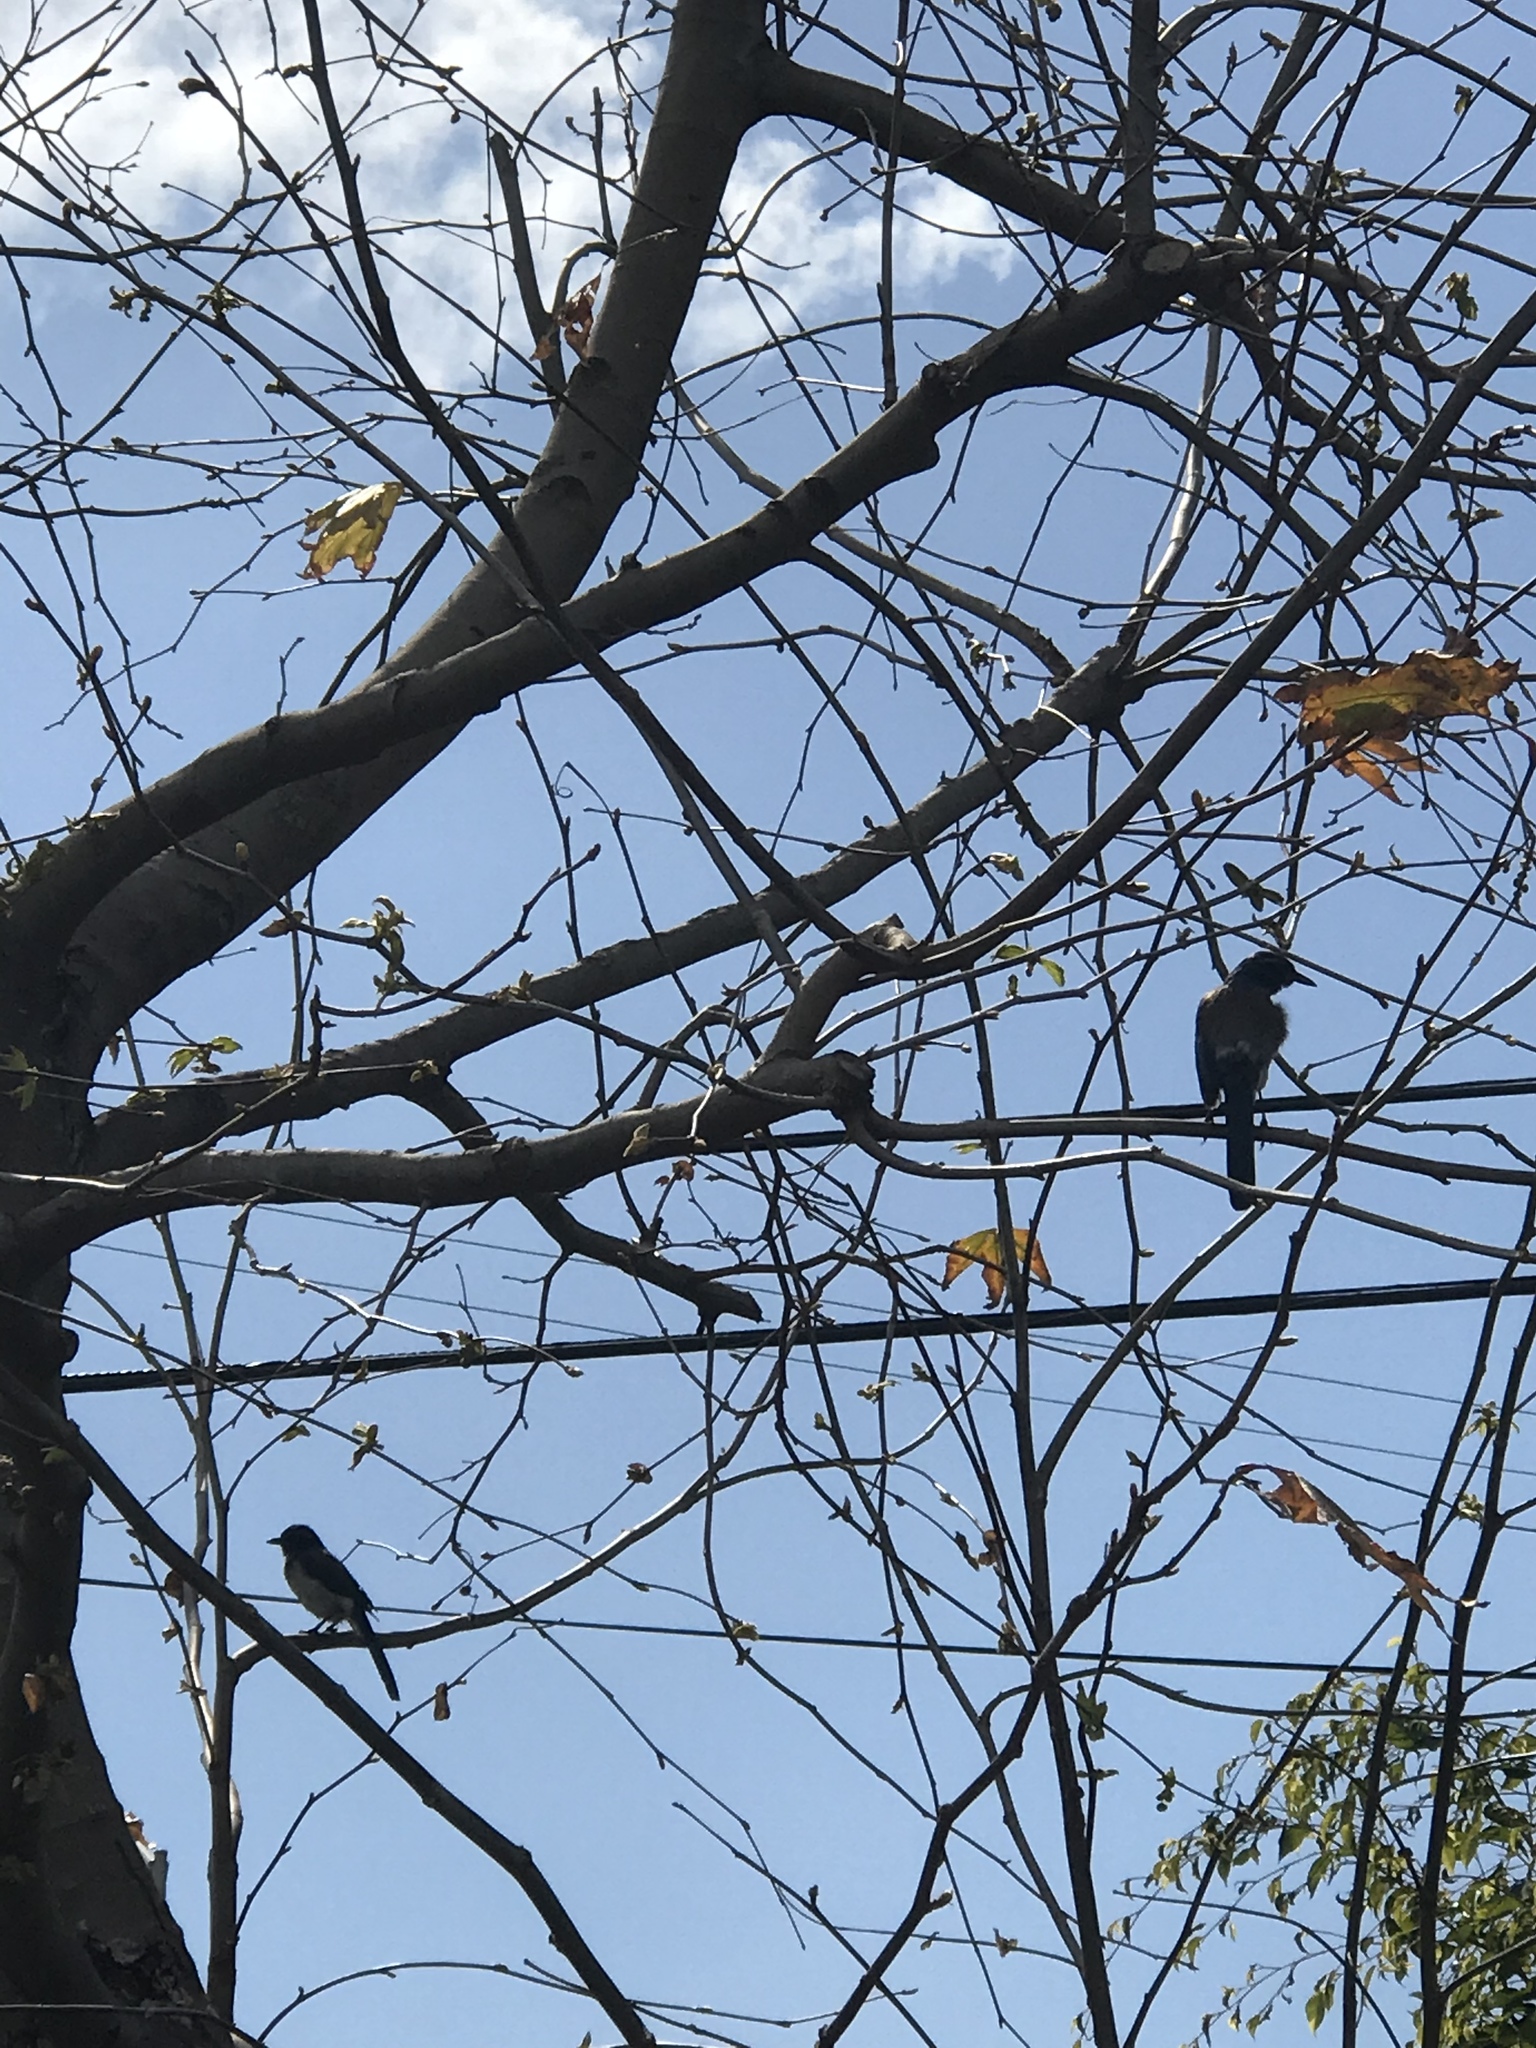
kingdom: Animalia
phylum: Chordata
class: Aves
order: Passeriformes
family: Corvidae
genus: Aphelocoma
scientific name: Aphelocoma californica
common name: California scrub-jay
